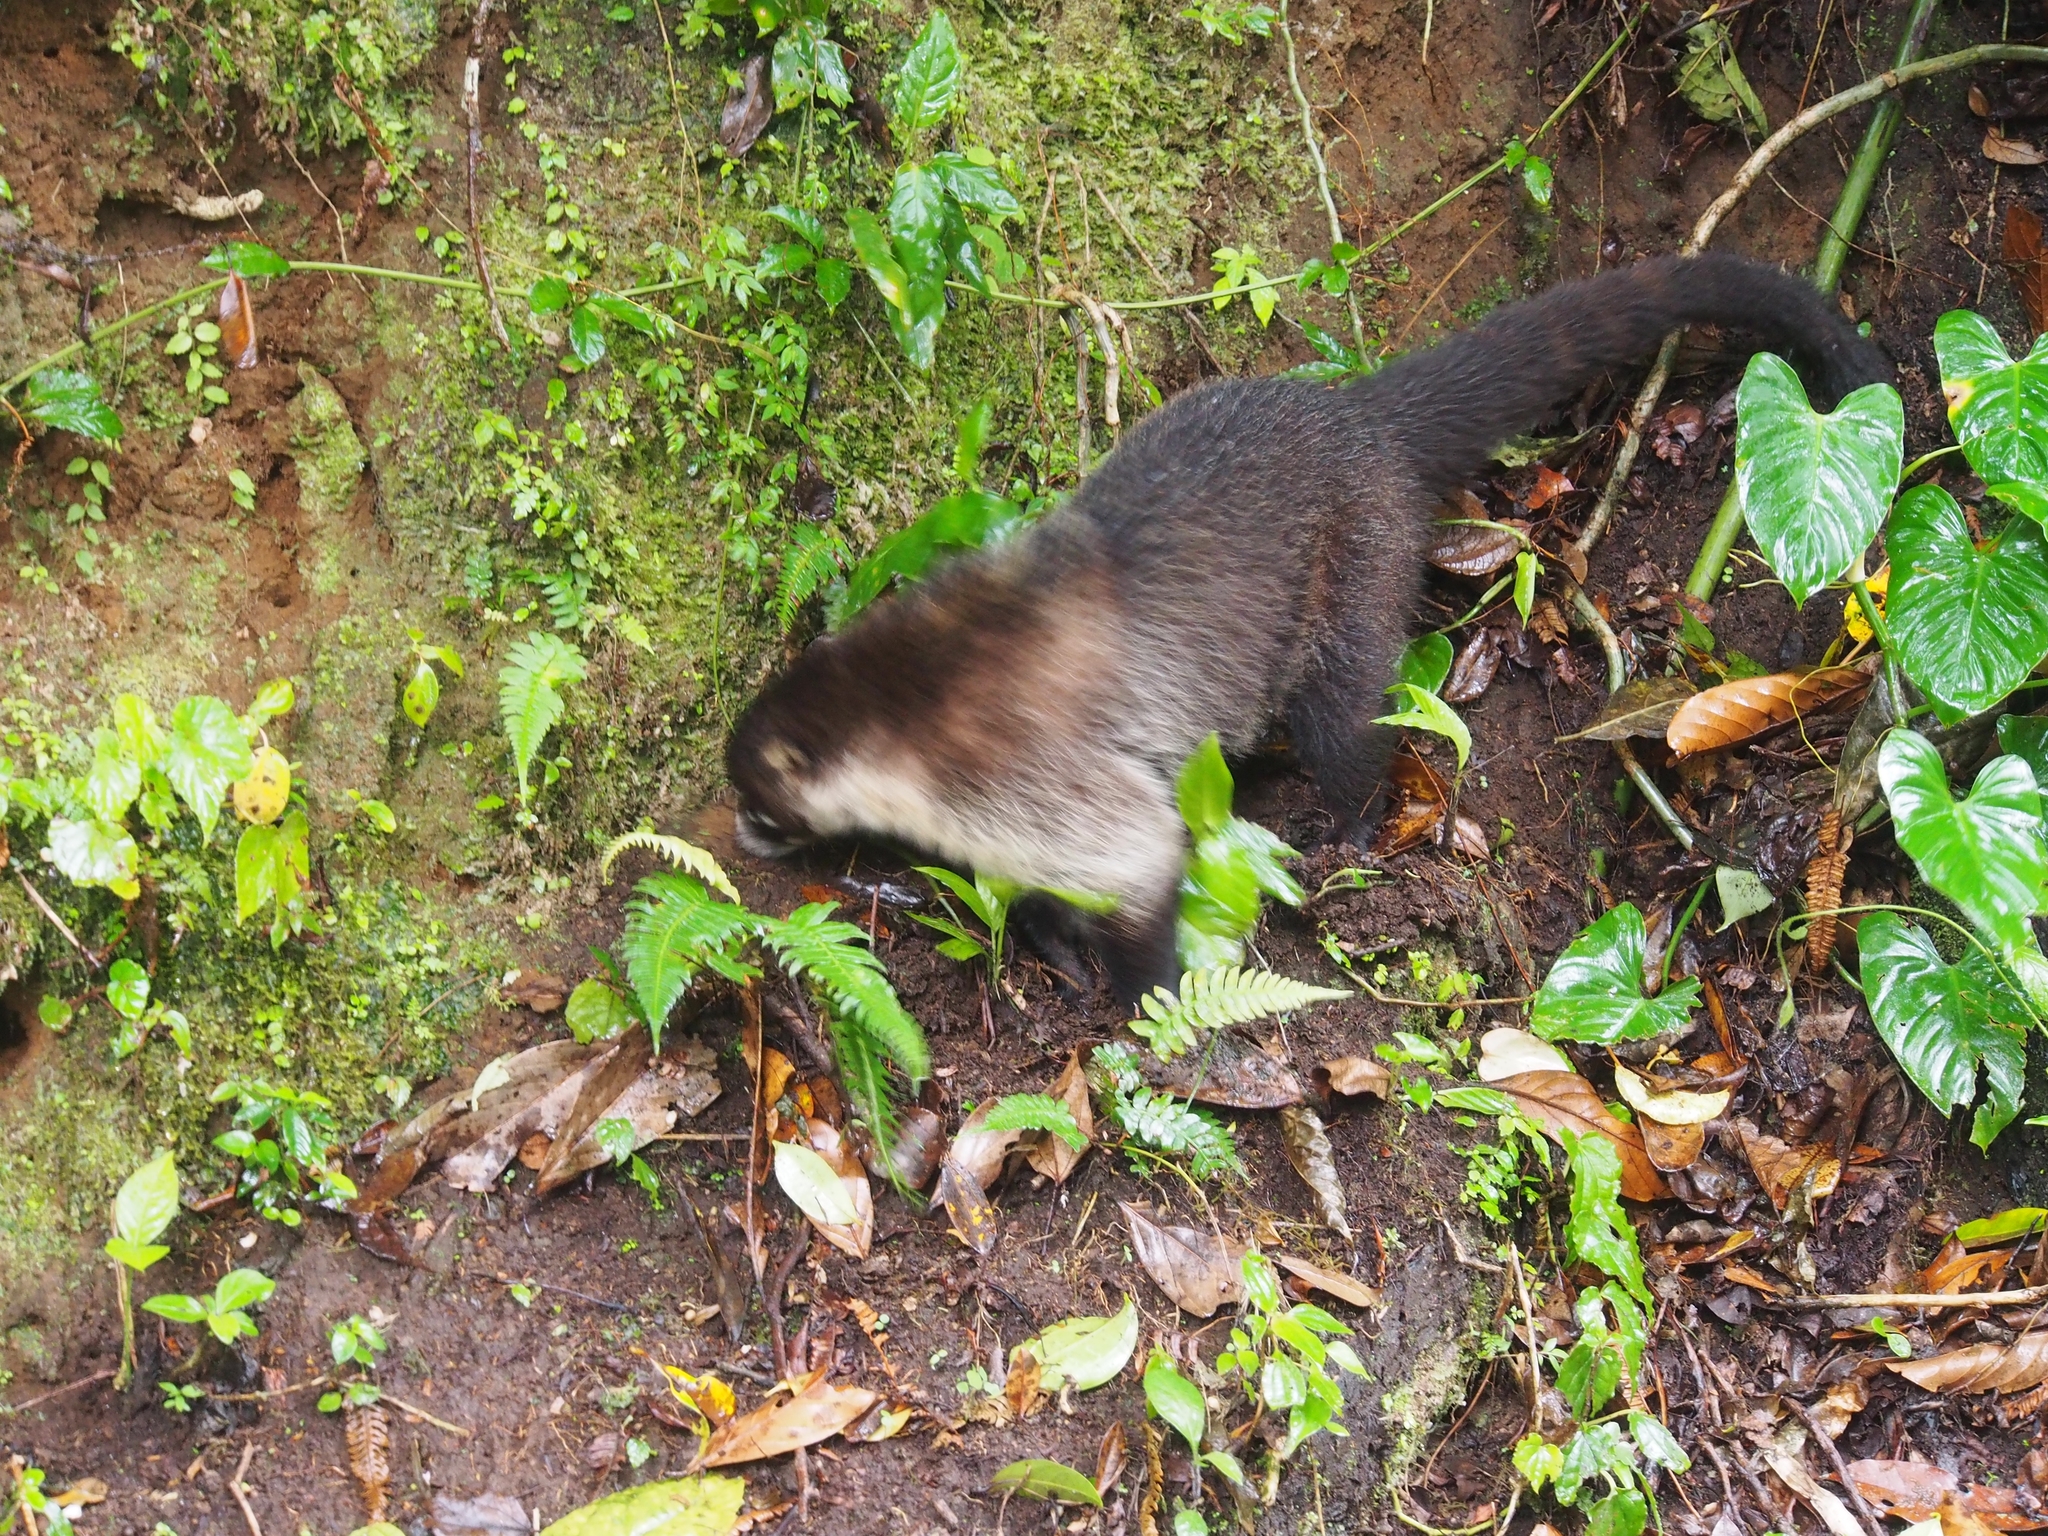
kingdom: Animalia
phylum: Chordata
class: Mammalia
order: Carnivora
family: Procyonidae
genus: Nasua
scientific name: Nasua narica
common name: White-nosed coati
